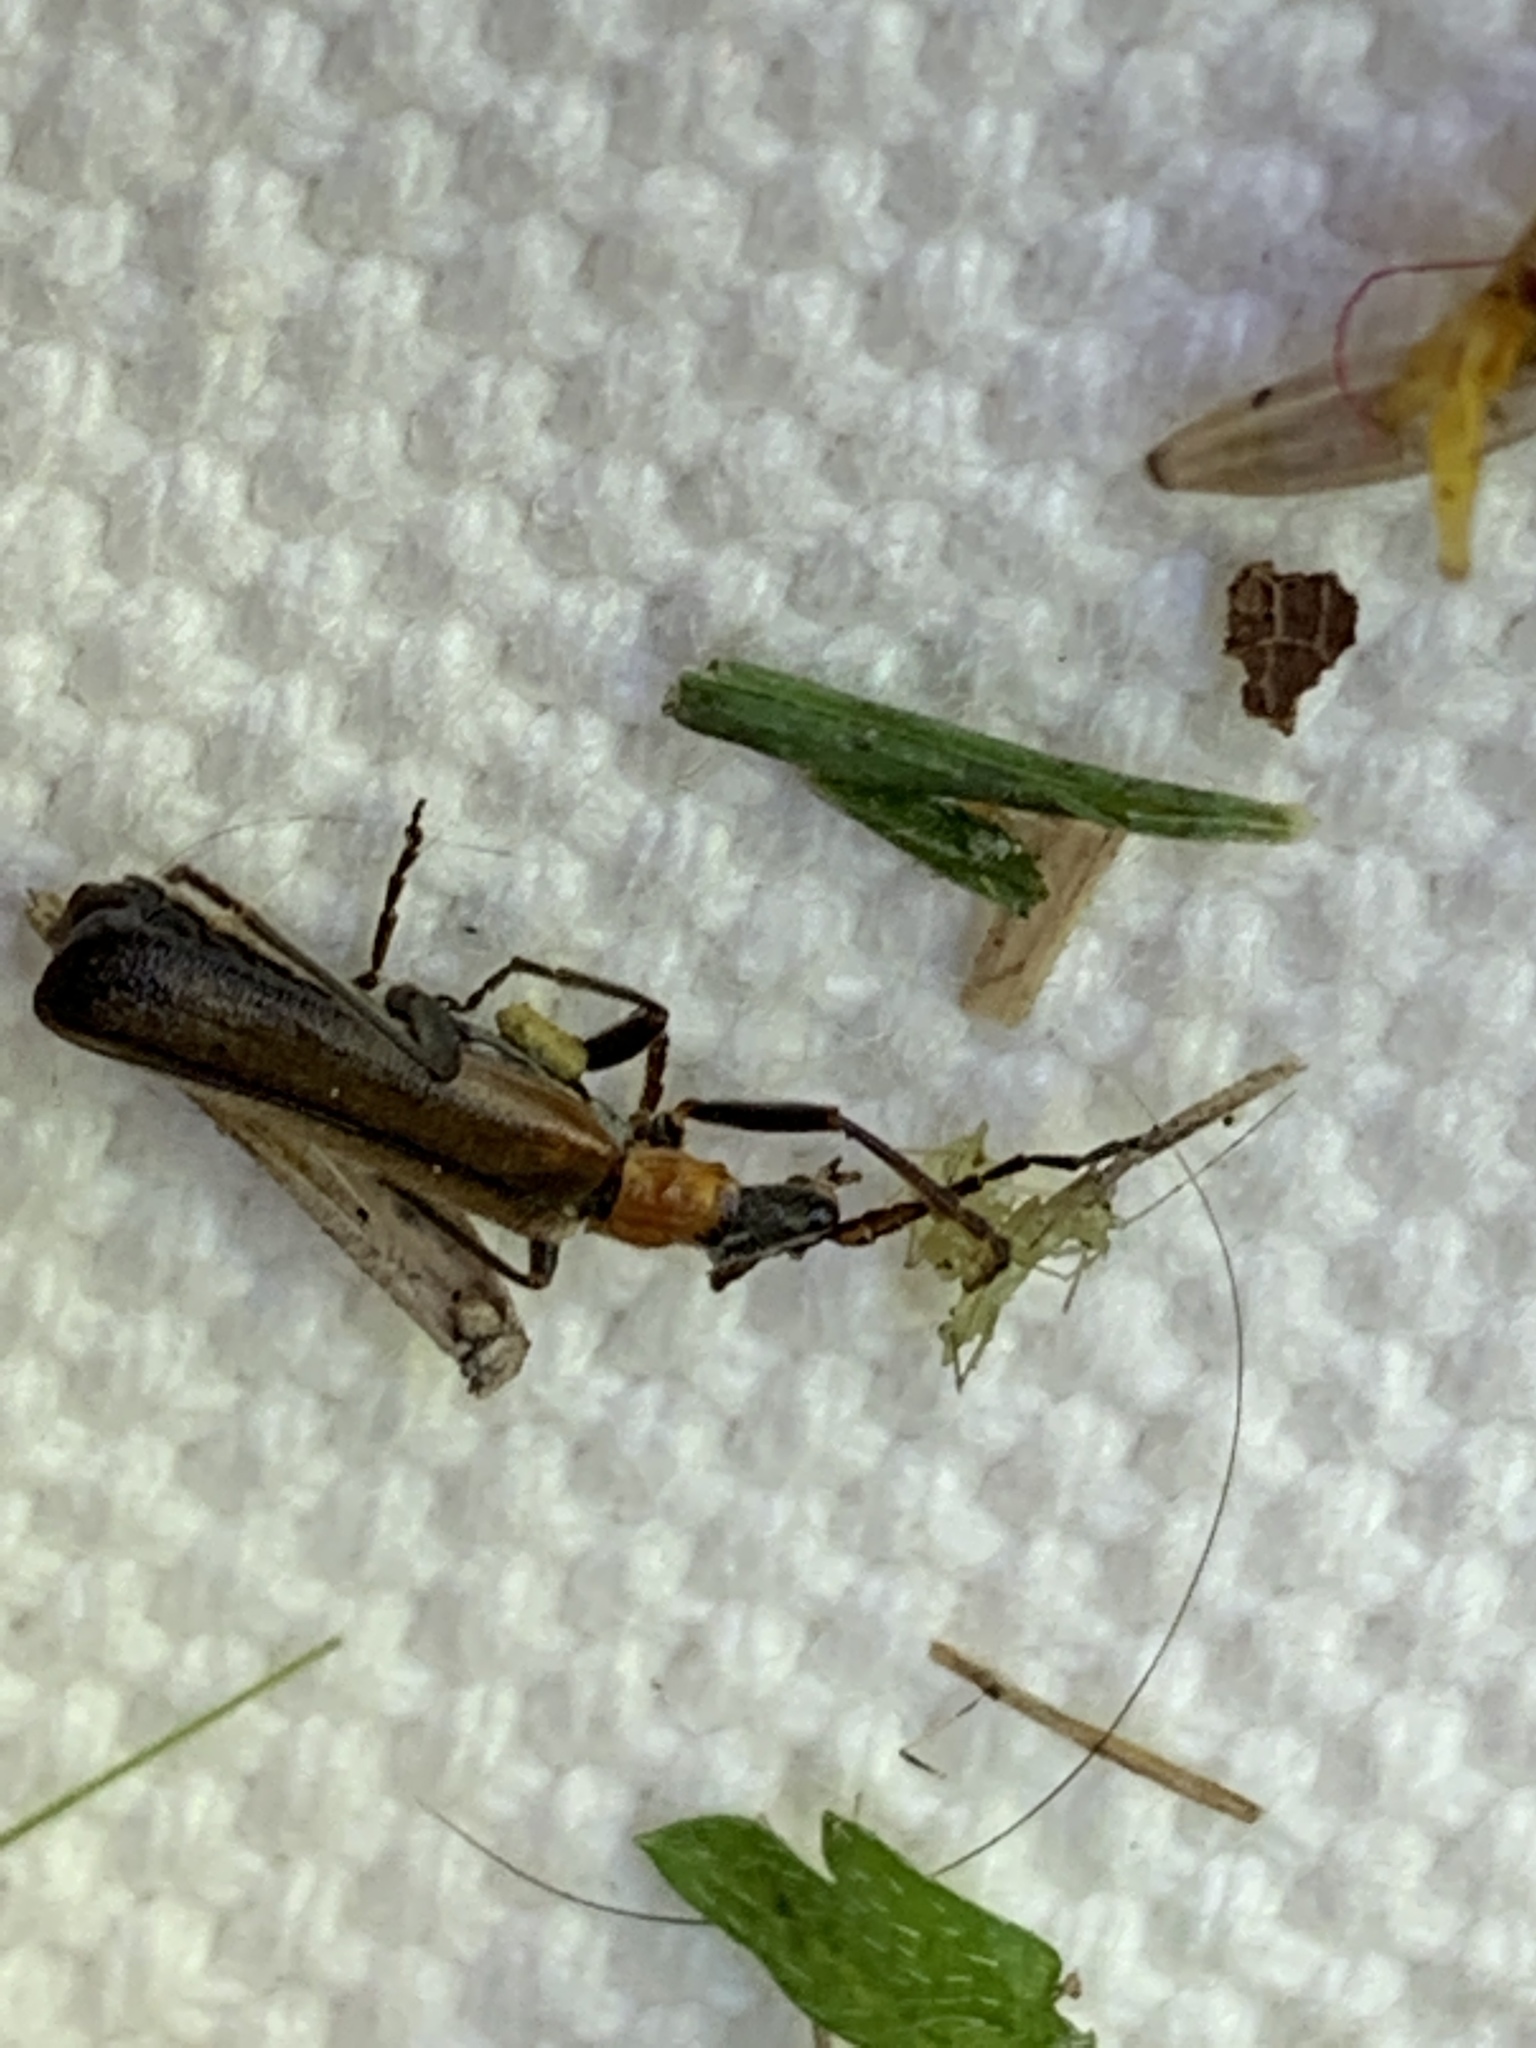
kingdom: Animalia
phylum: Arthropoda
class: Insecta
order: Coleoptera
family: Cantharidae
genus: Dichelotarsus
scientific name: Dichelotarsus cavicollis
